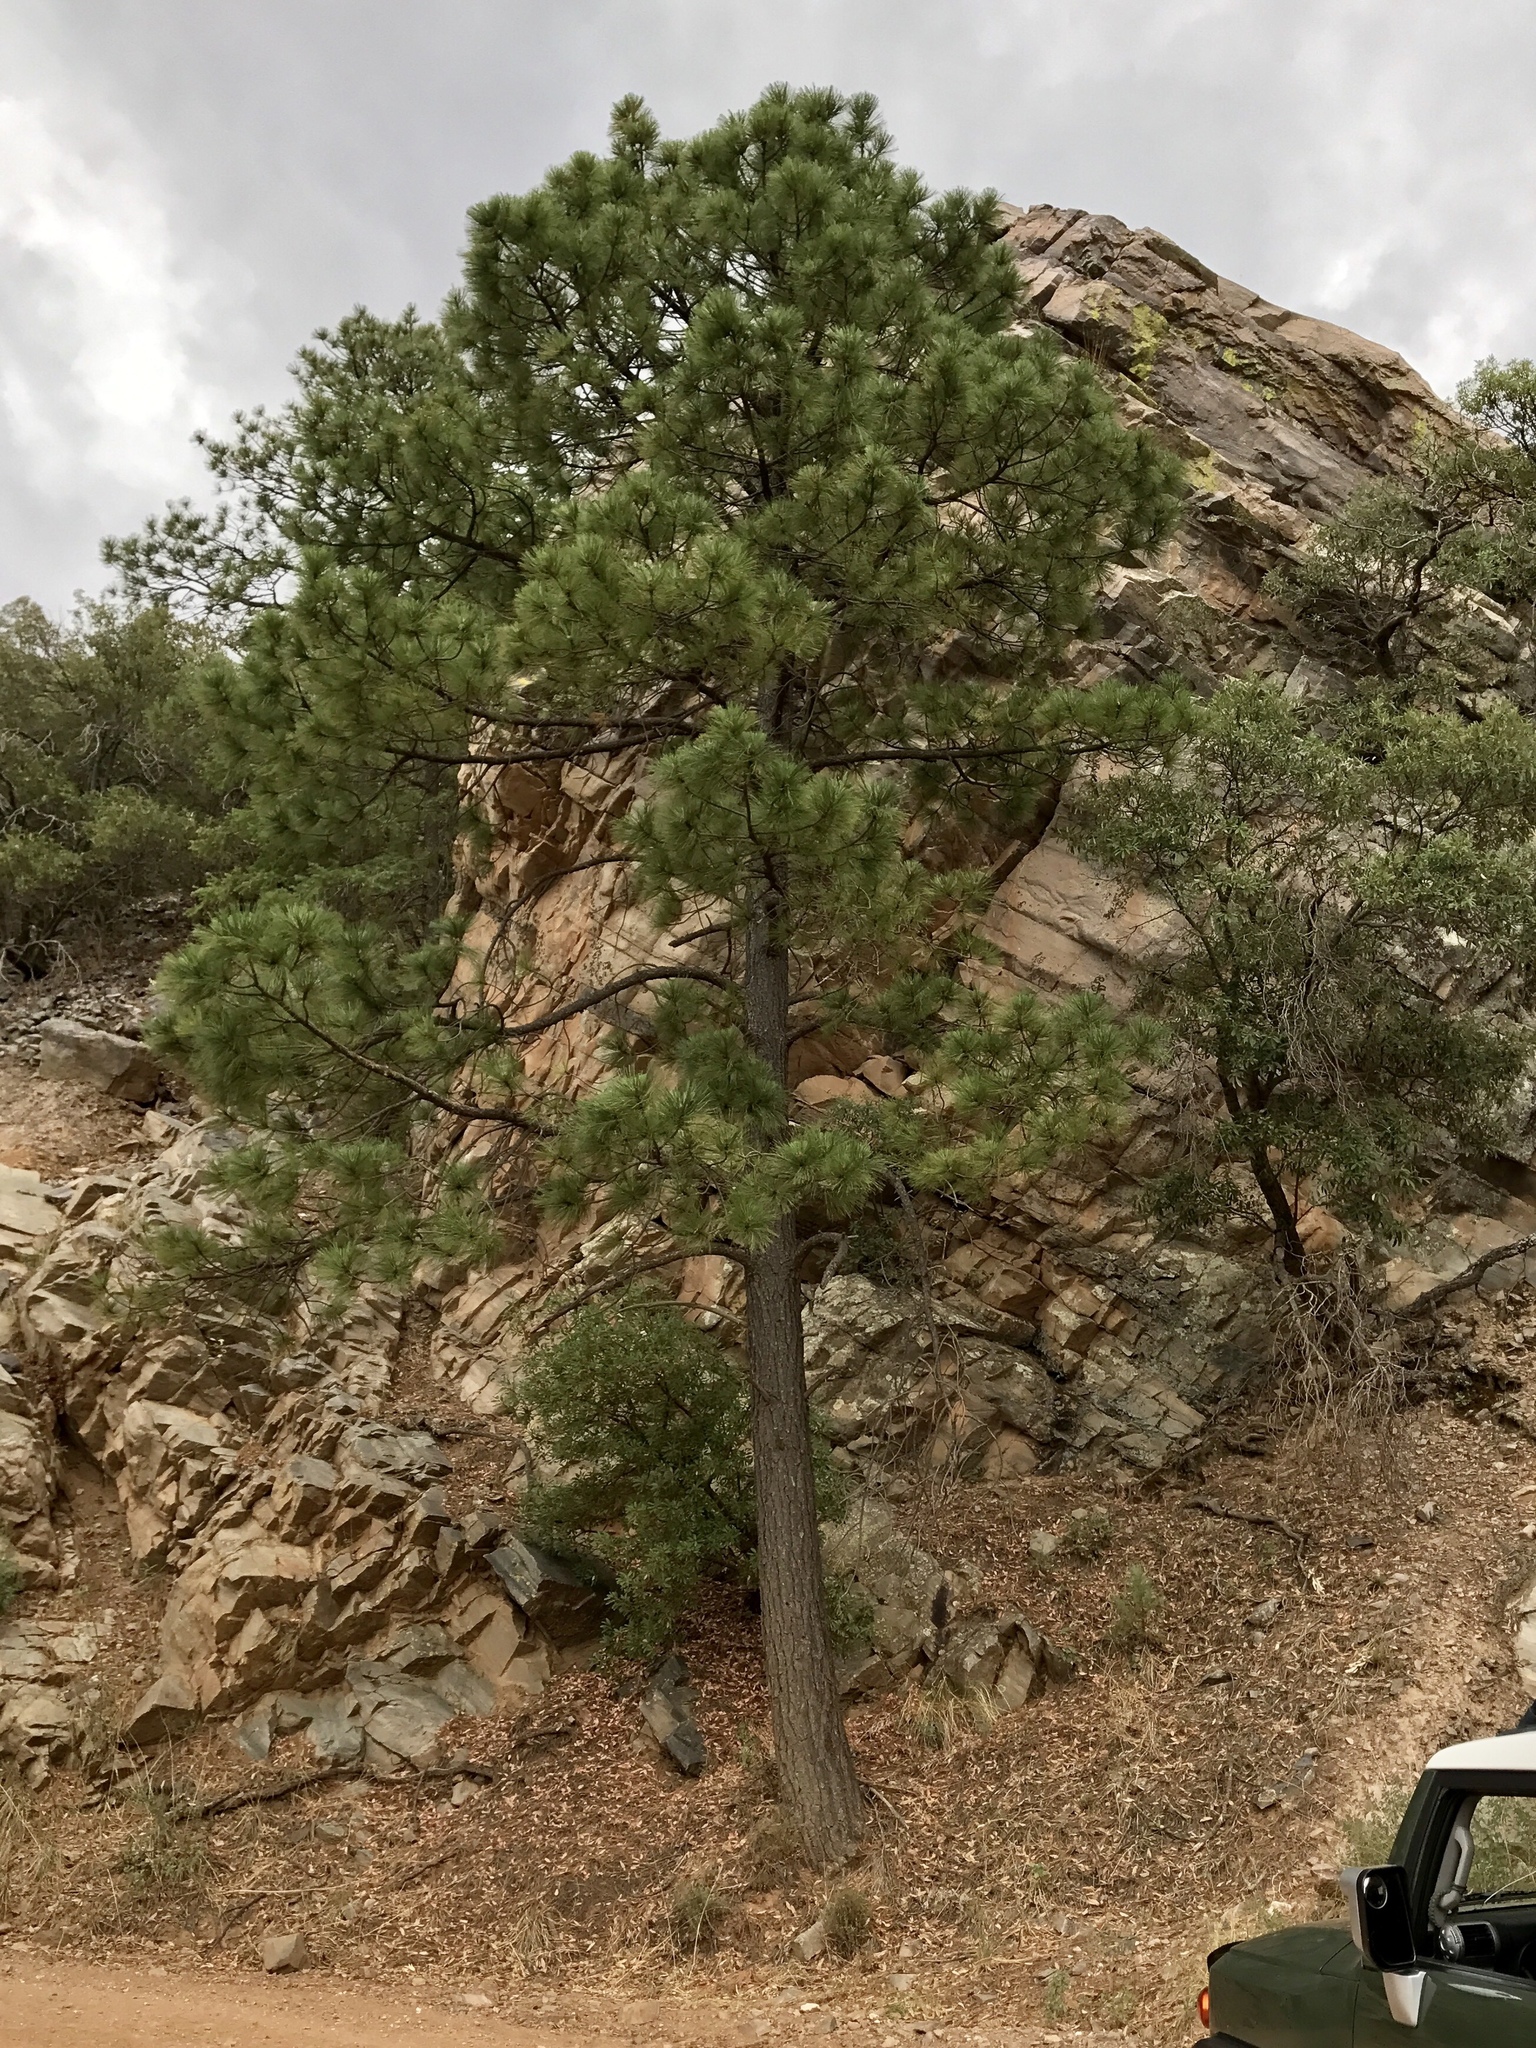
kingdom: Plantae
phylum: Tracheophyta
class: Pinopsida
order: Pinales
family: Pinaceae
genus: Pinus
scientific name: Pinus arizonica
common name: Arizona pine
